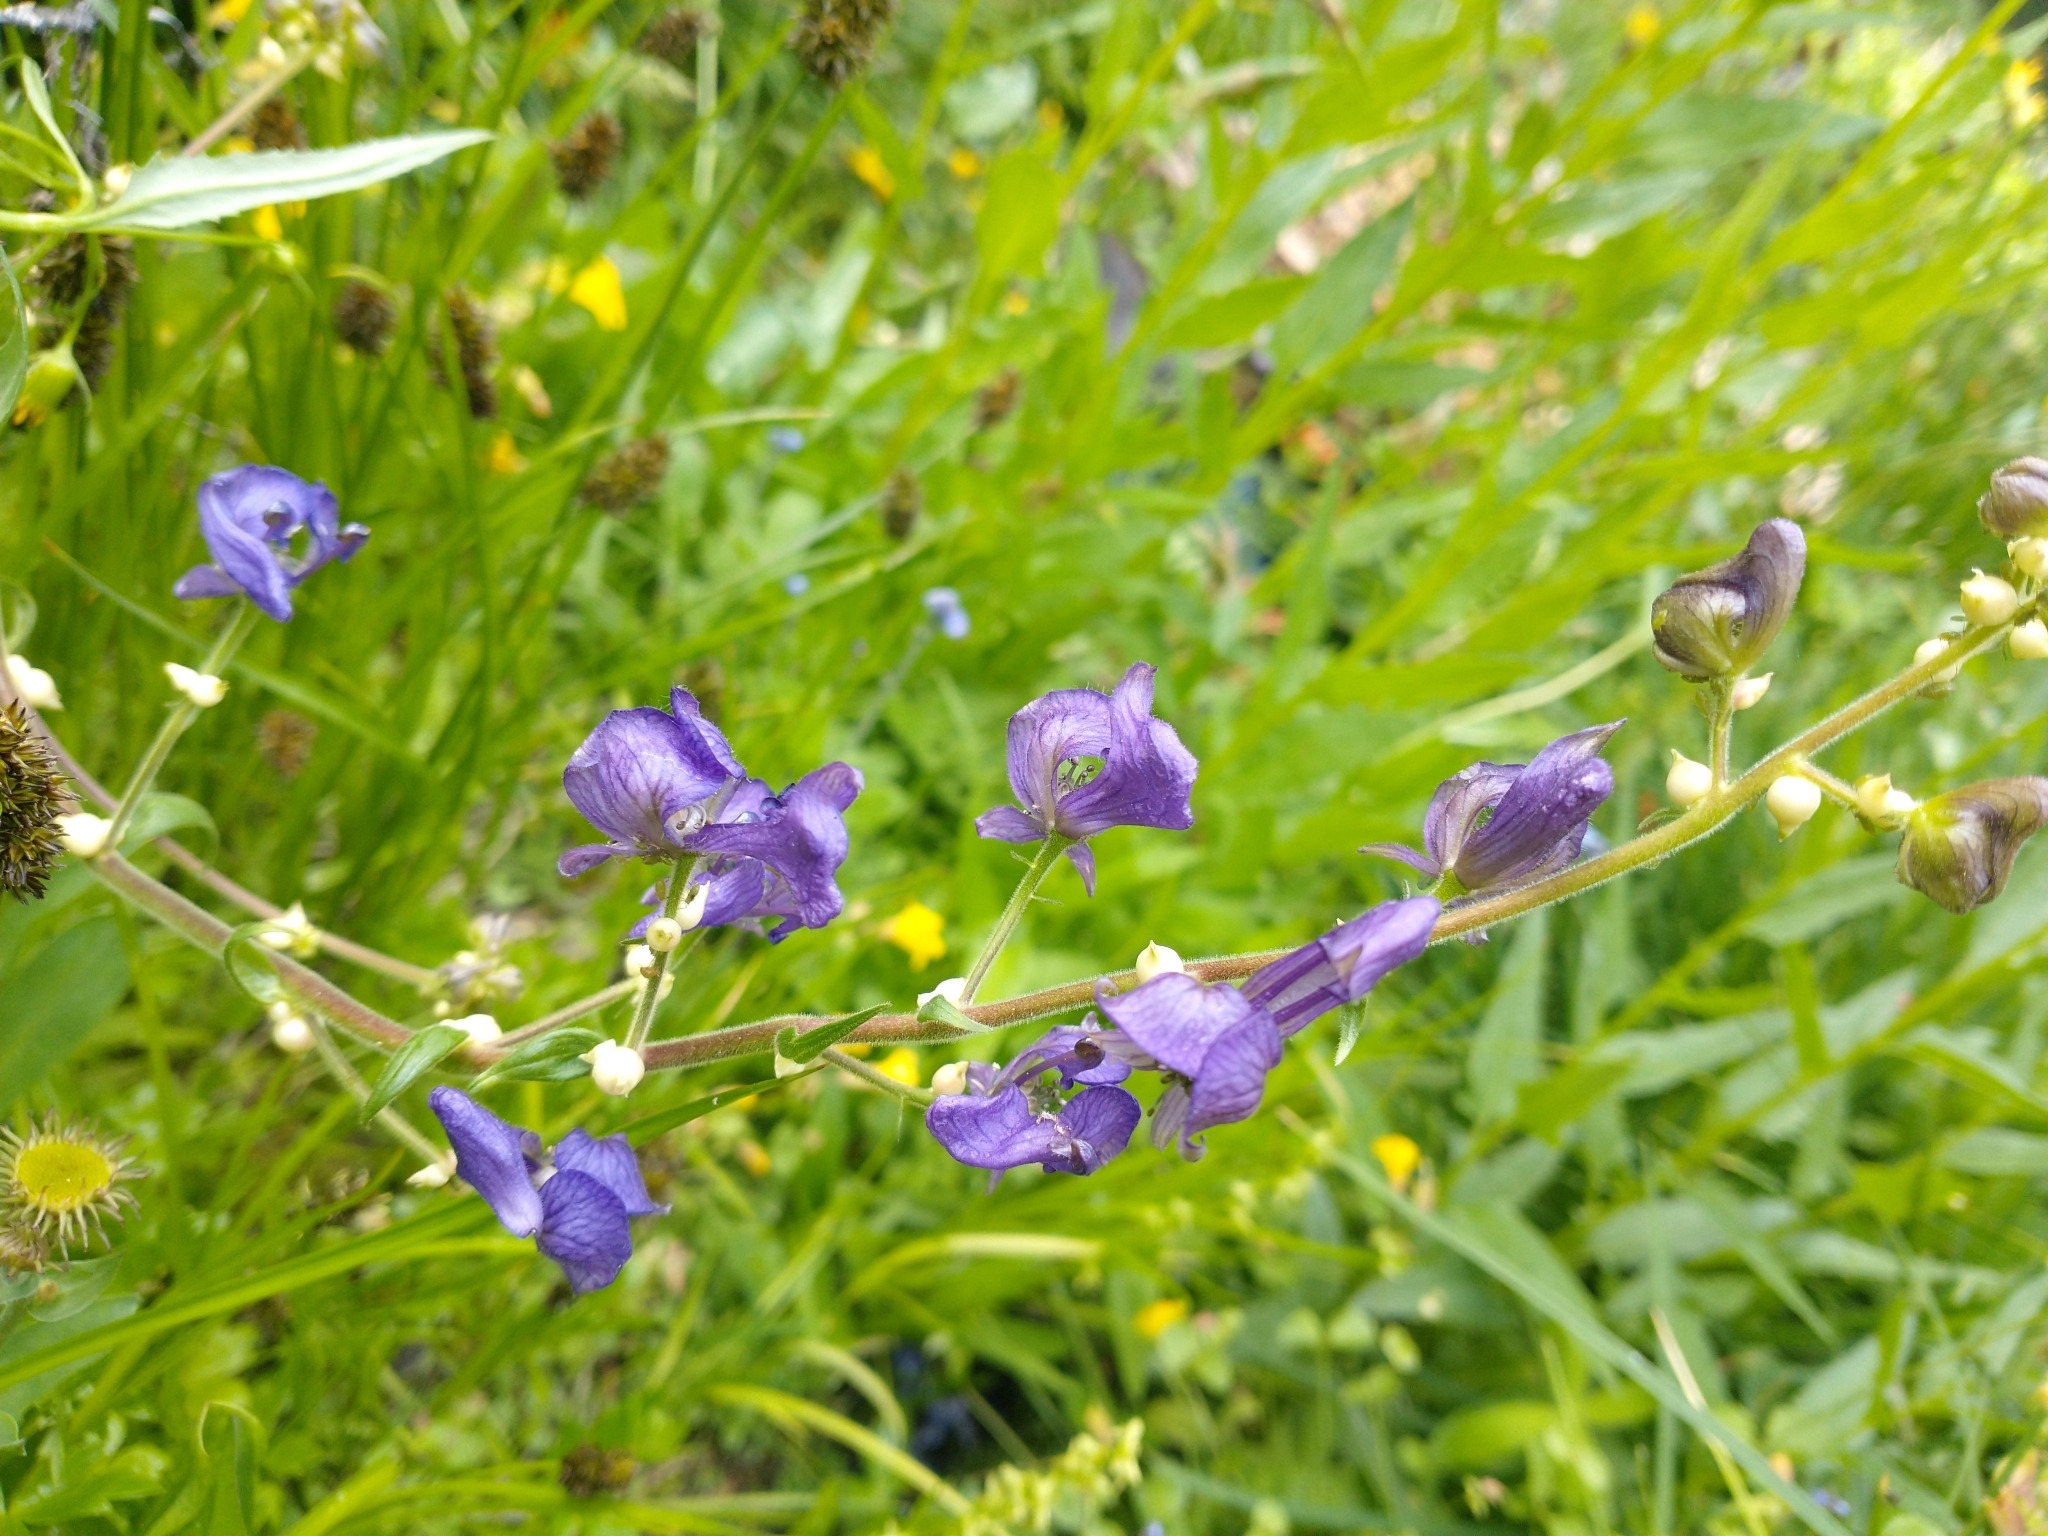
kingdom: Plantae
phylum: Tracheophyta
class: Magnoliopsida
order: Ranunculales
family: Ranunculaceae
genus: Aconitum
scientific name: Aconitum columbianum
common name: Columbia aconite
